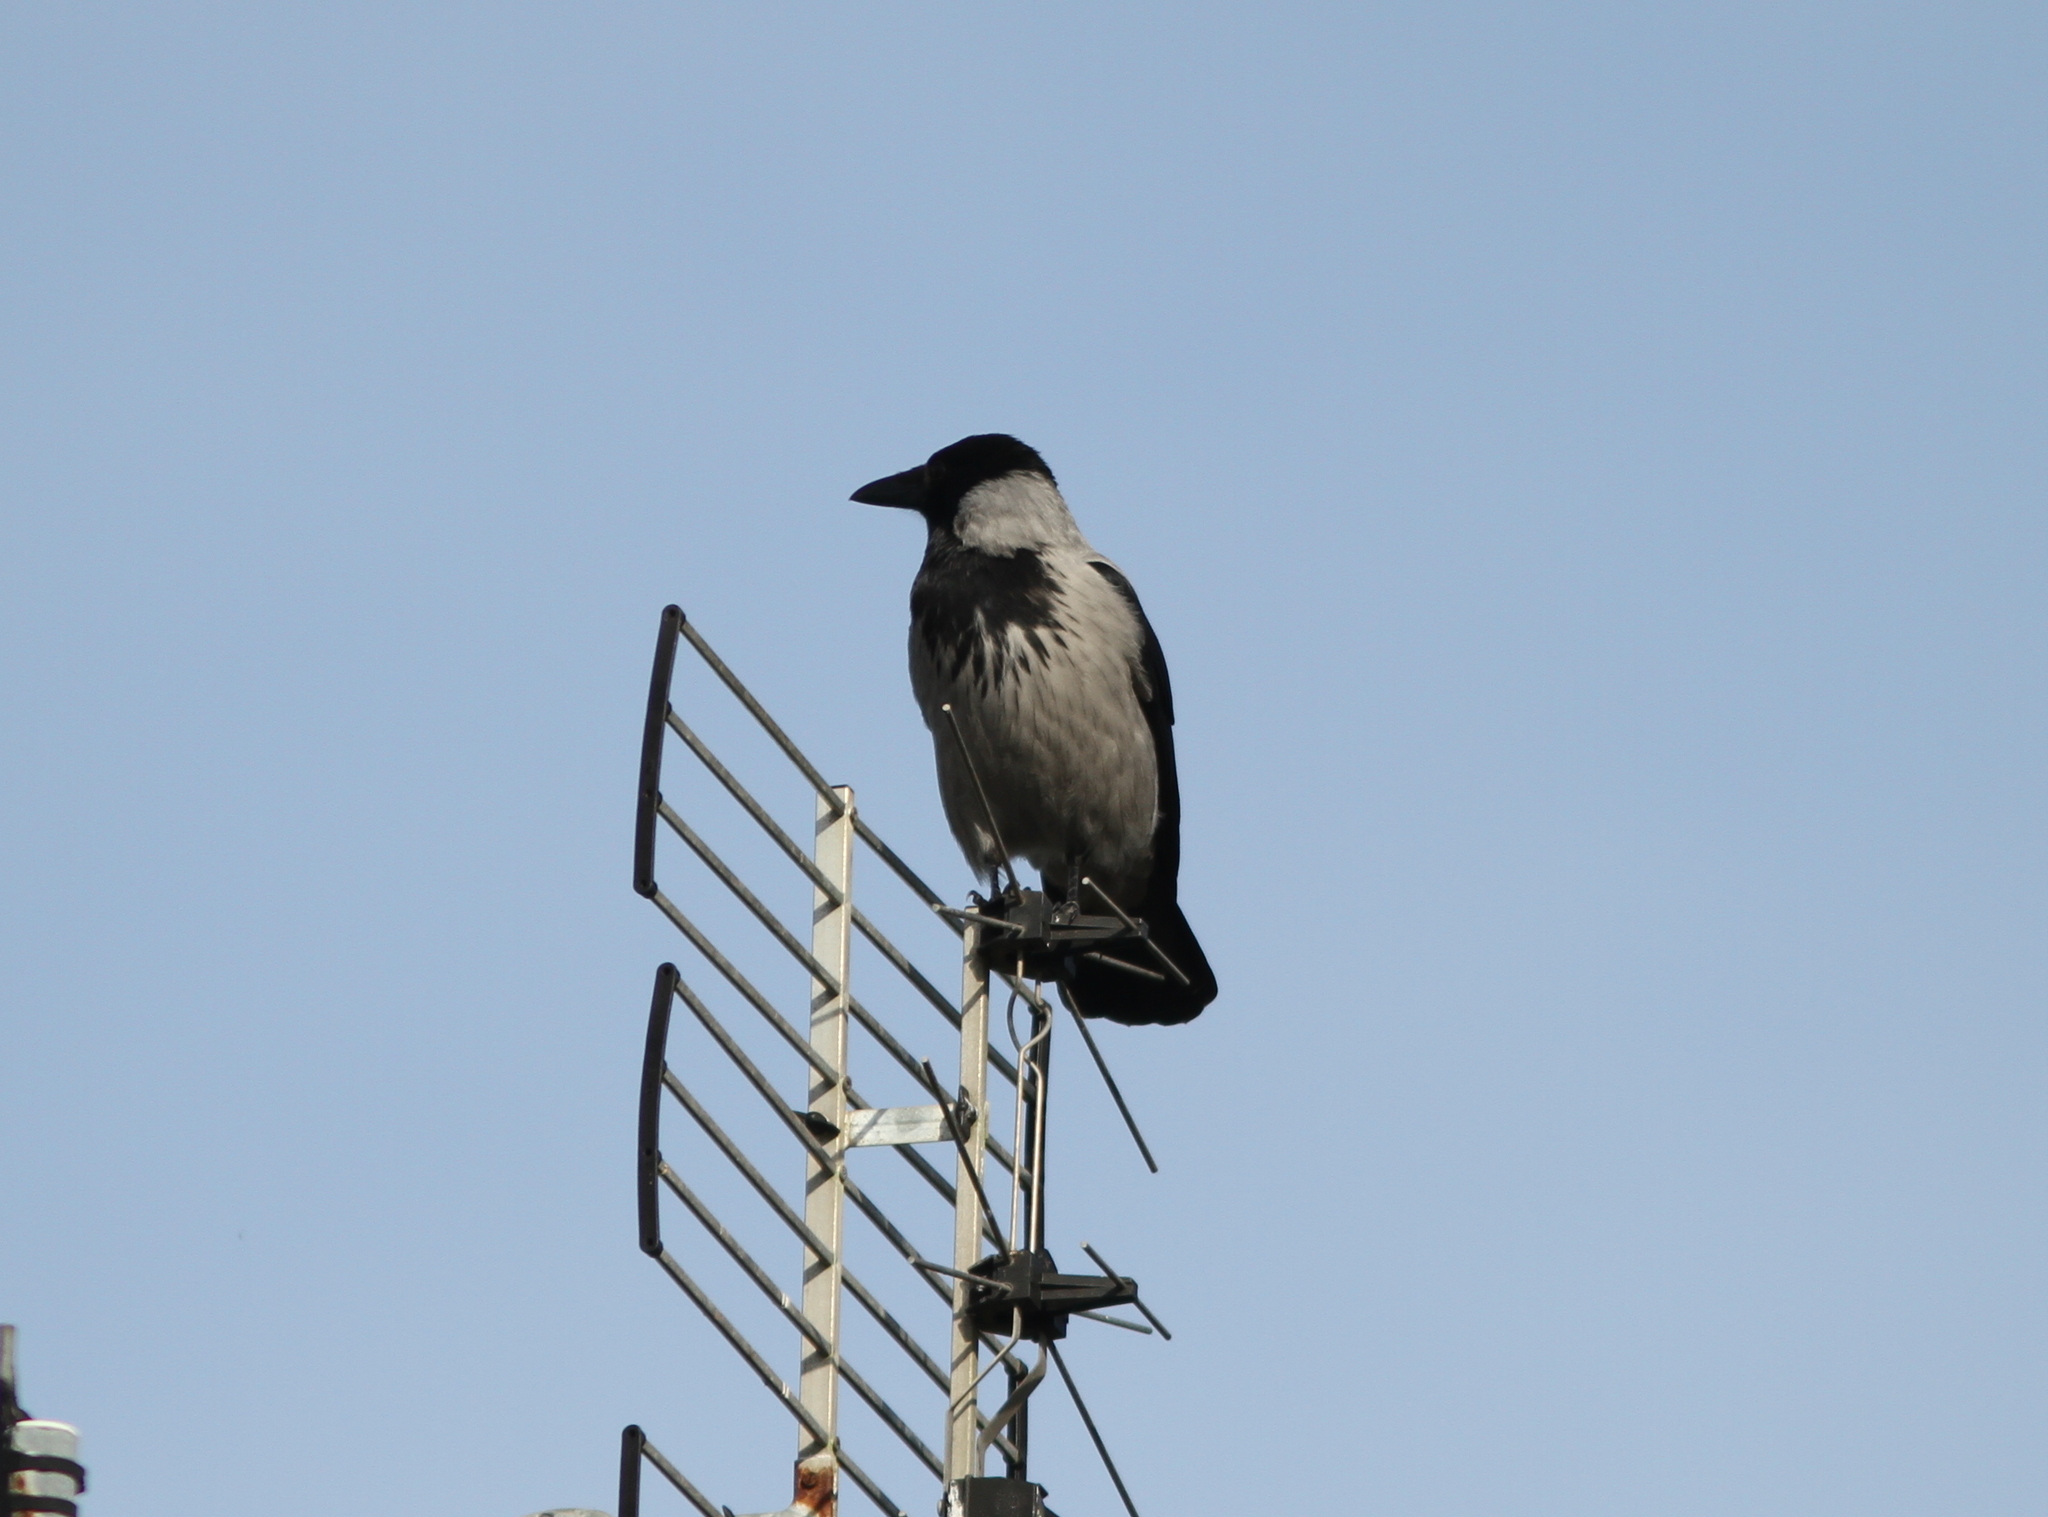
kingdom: Animalia
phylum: Chordata
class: Aves
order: Passeriformes
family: Corvidae
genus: Corvus
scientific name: Corvus cornix
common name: Hooded crow
